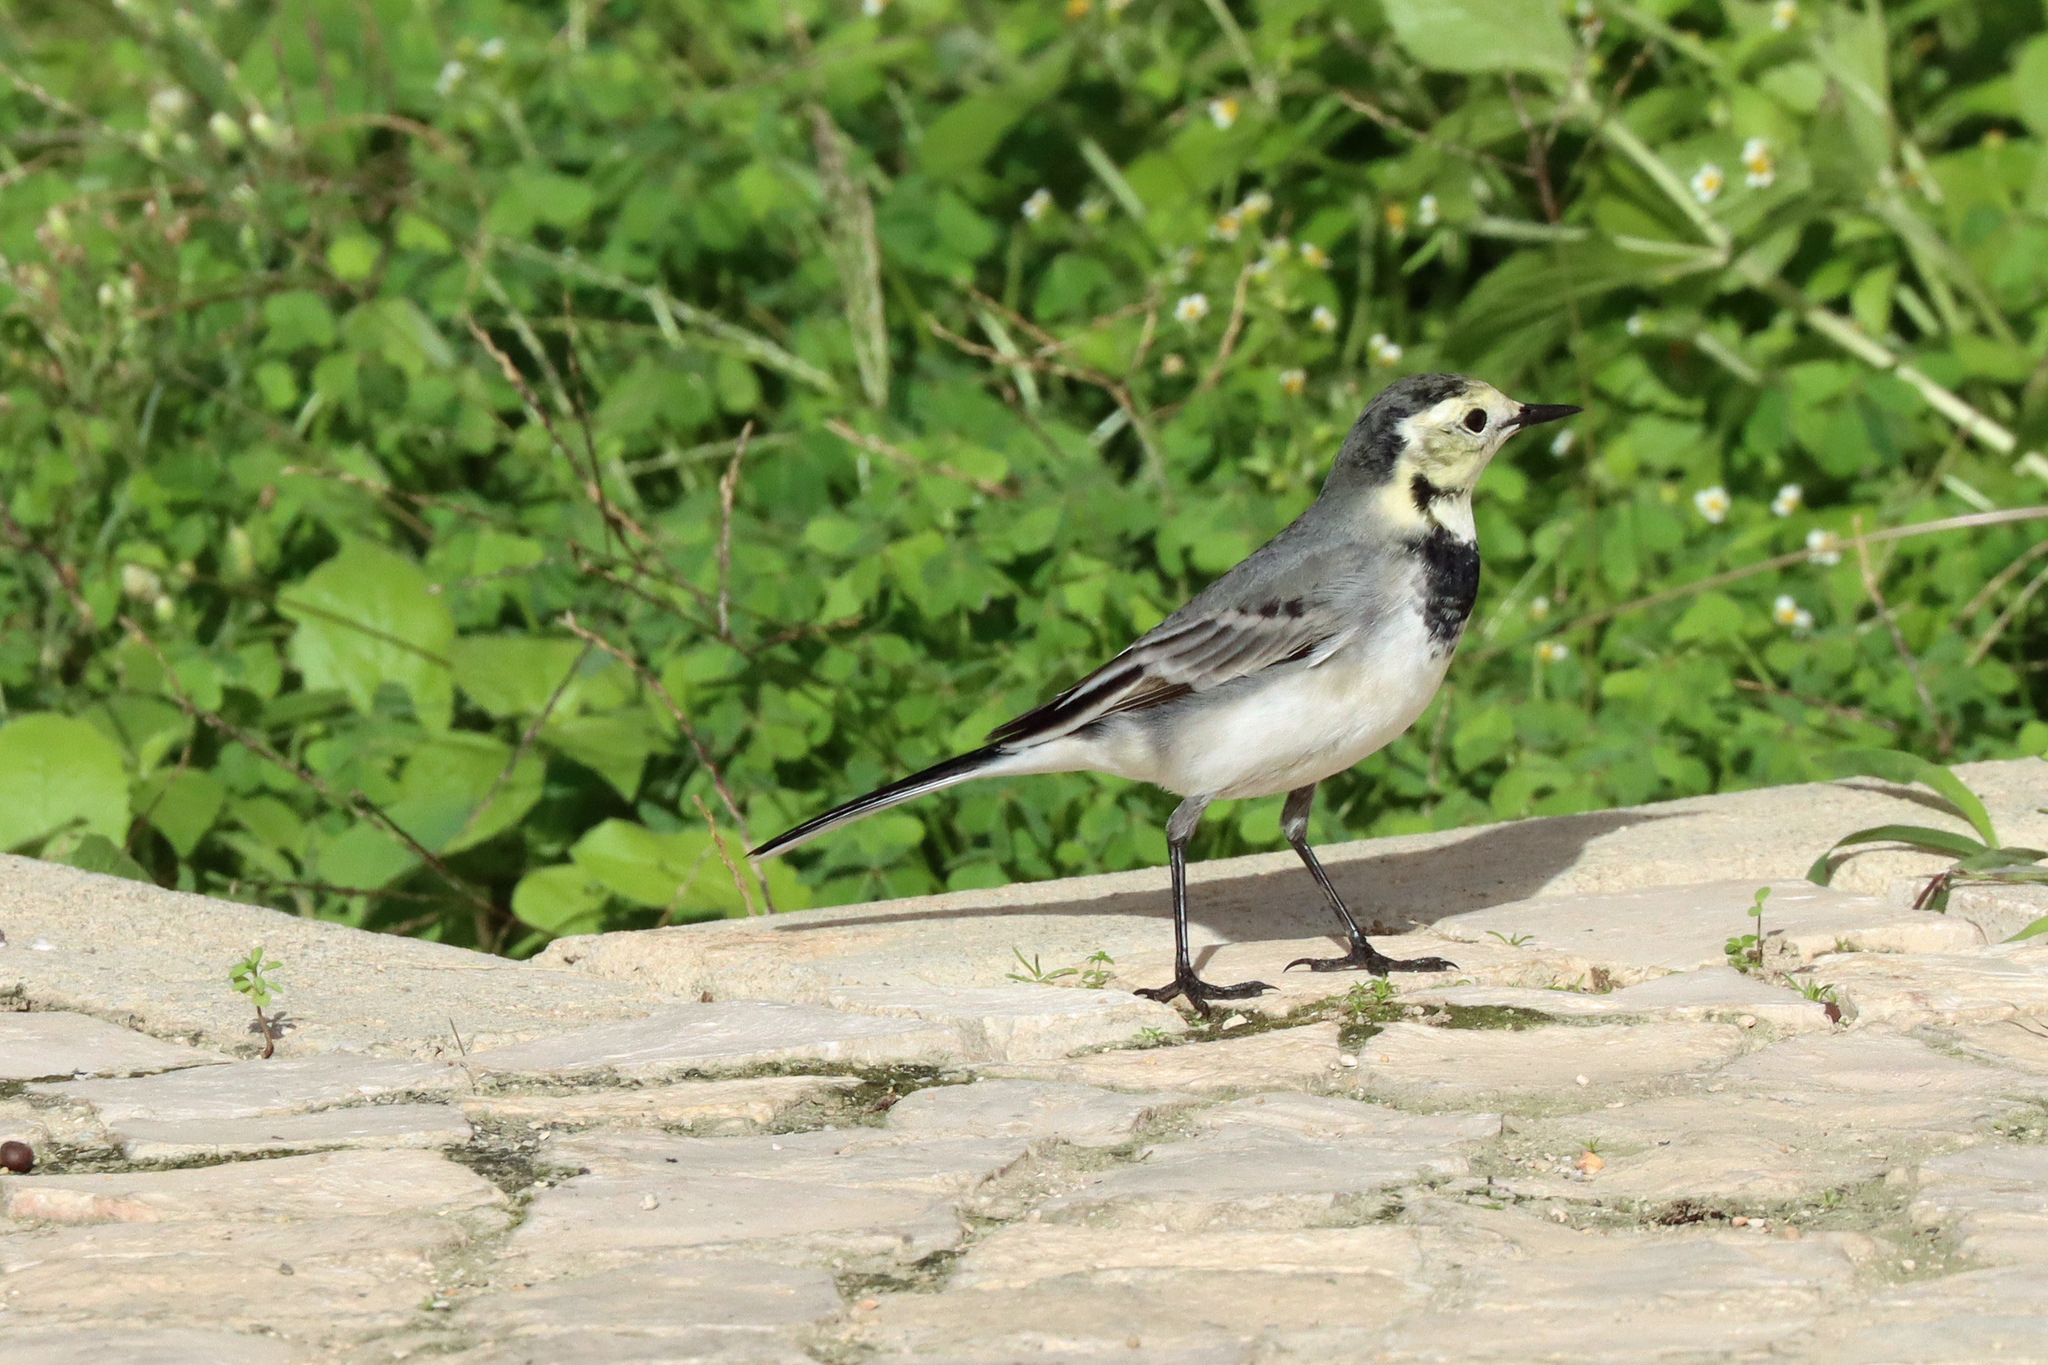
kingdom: Animalia
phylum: Chordata
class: Aves
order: Passeriformes
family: Motacillidae
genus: Motacilla
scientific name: Motacilla alba
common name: White wagtail
